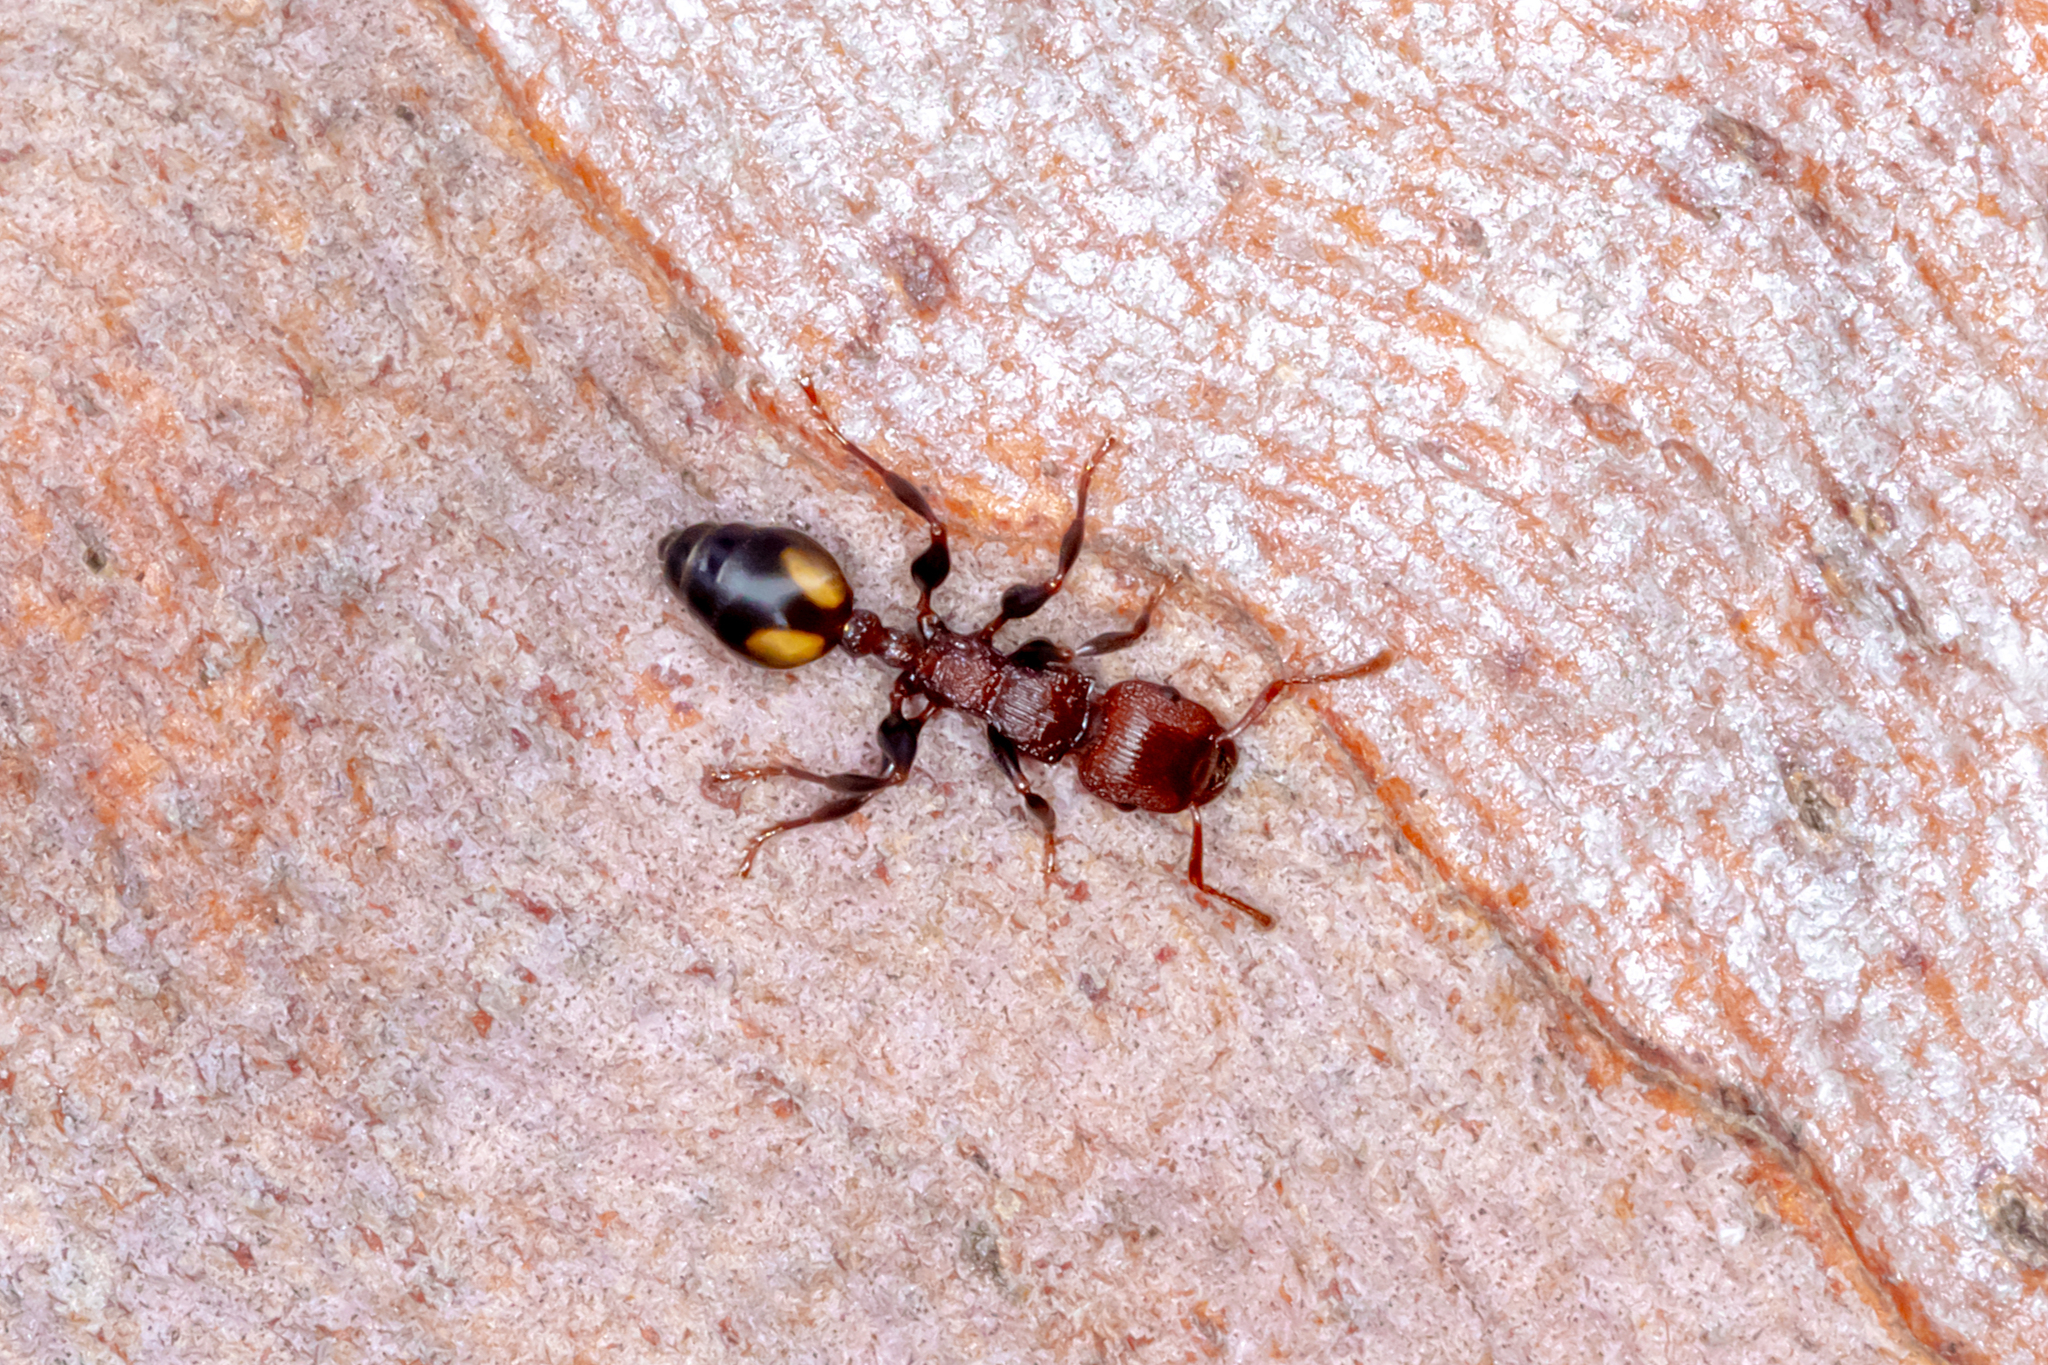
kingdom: Animalia
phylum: Arthropoda
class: Insecta
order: Hymenoptera
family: Formicidae
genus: Podomyrma
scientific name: Podomyrma adelaidae
